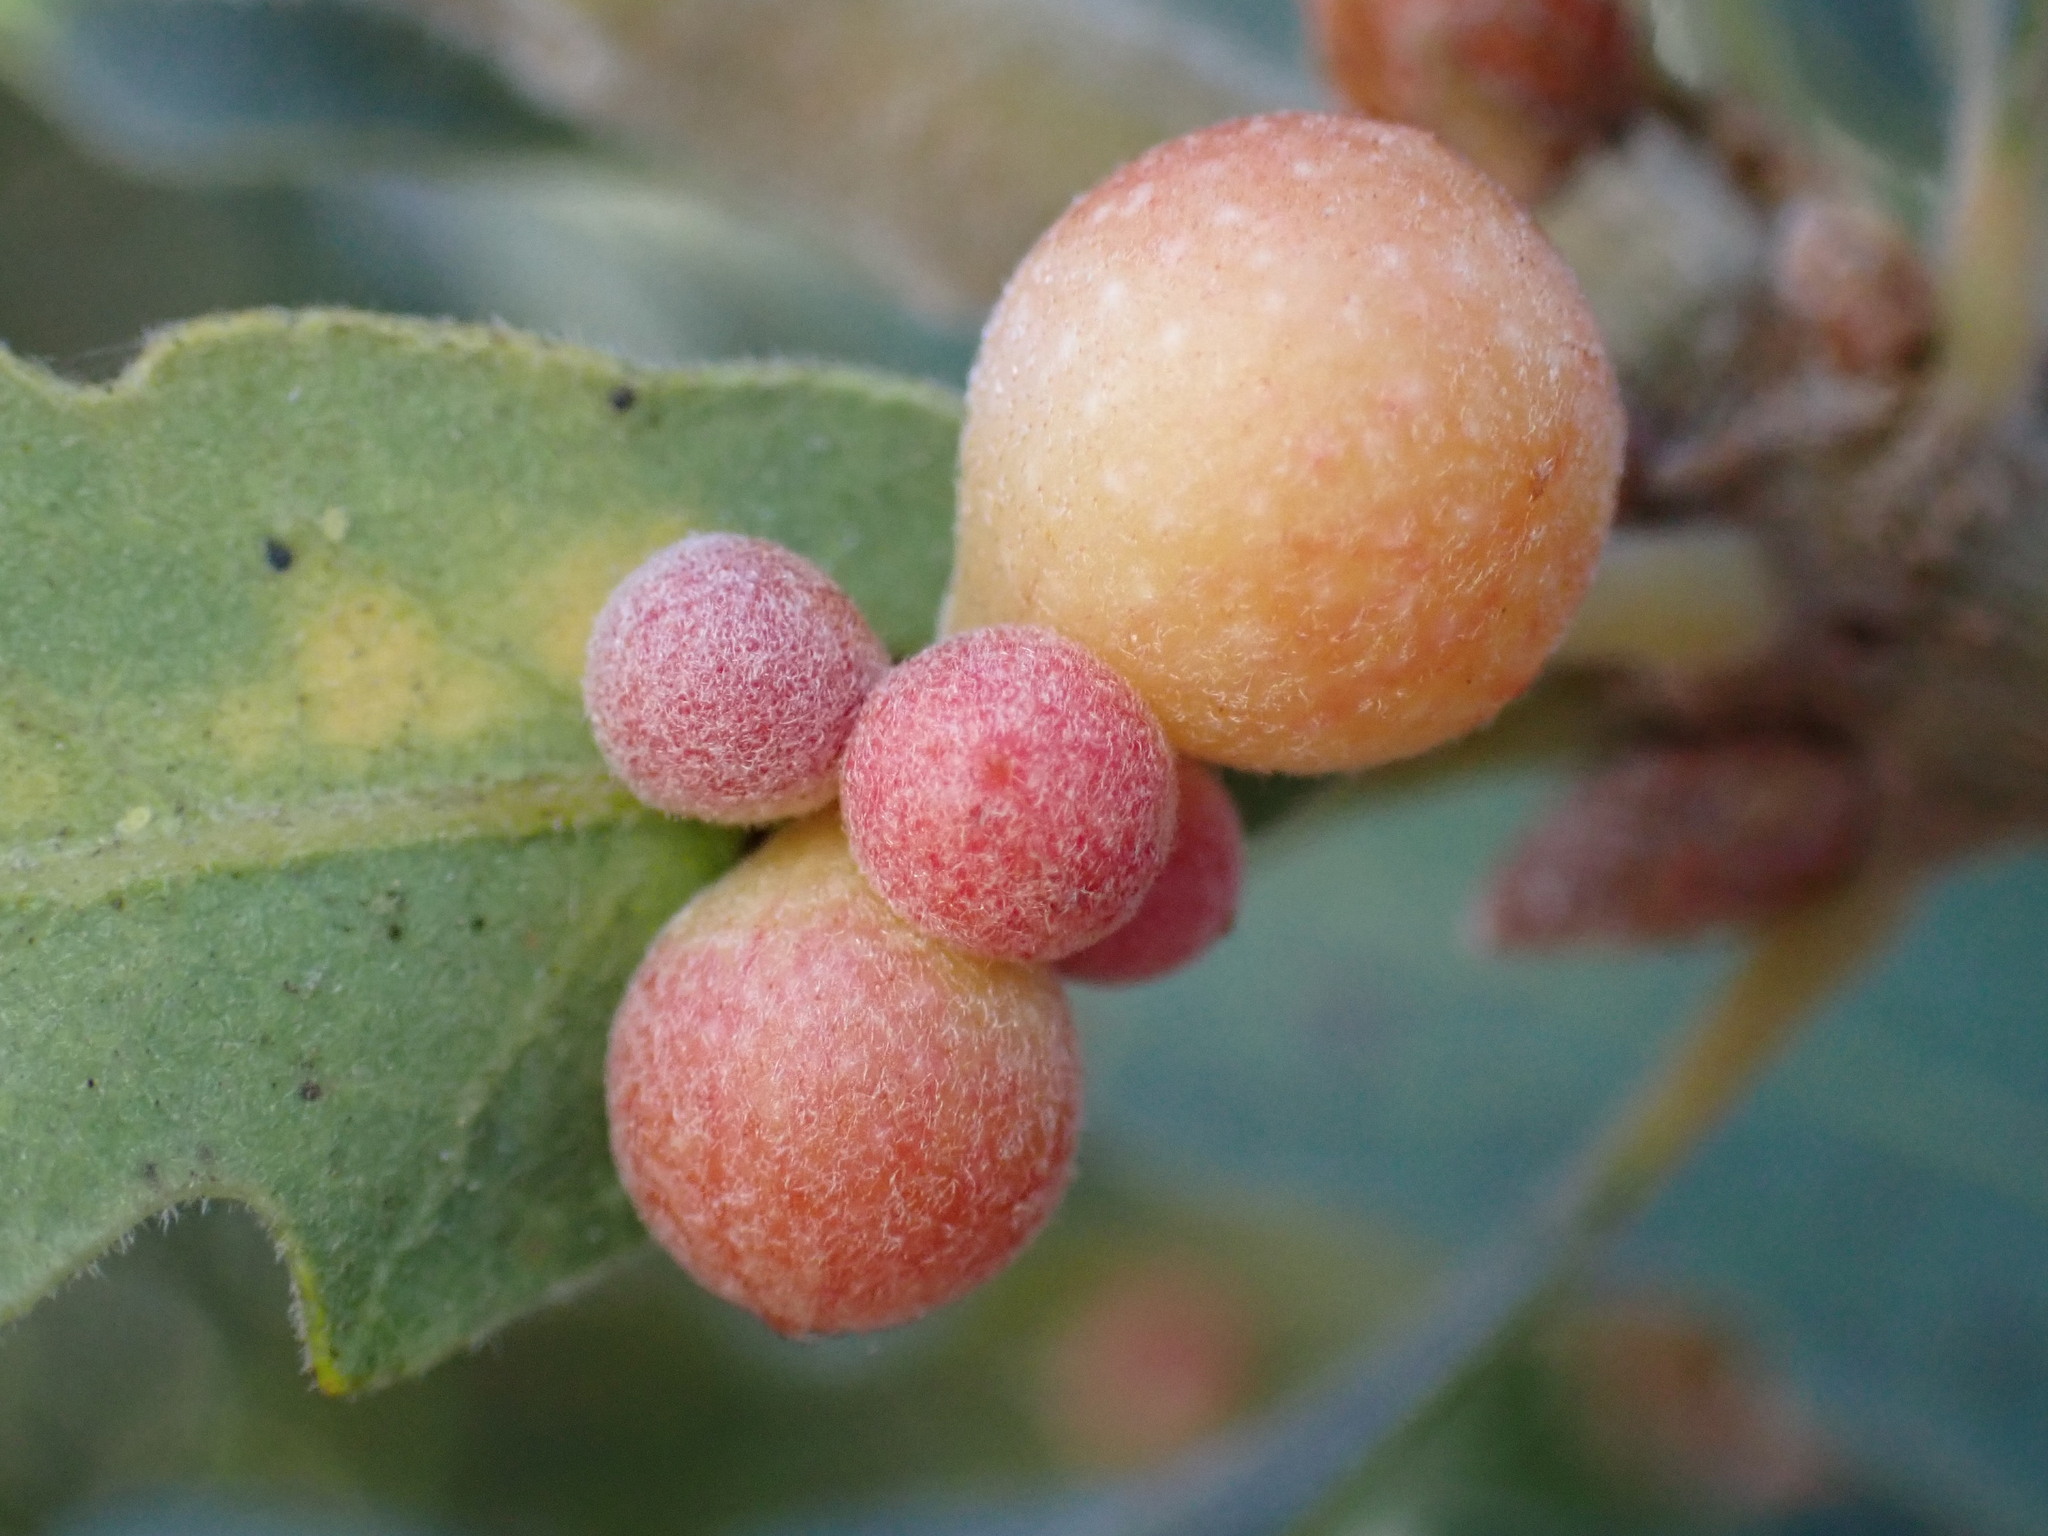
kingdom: Animalia
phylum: Arthropoda
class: Insecta
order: Hymenoptera
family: Cynipidae
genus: Andricus
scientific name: Andricus
